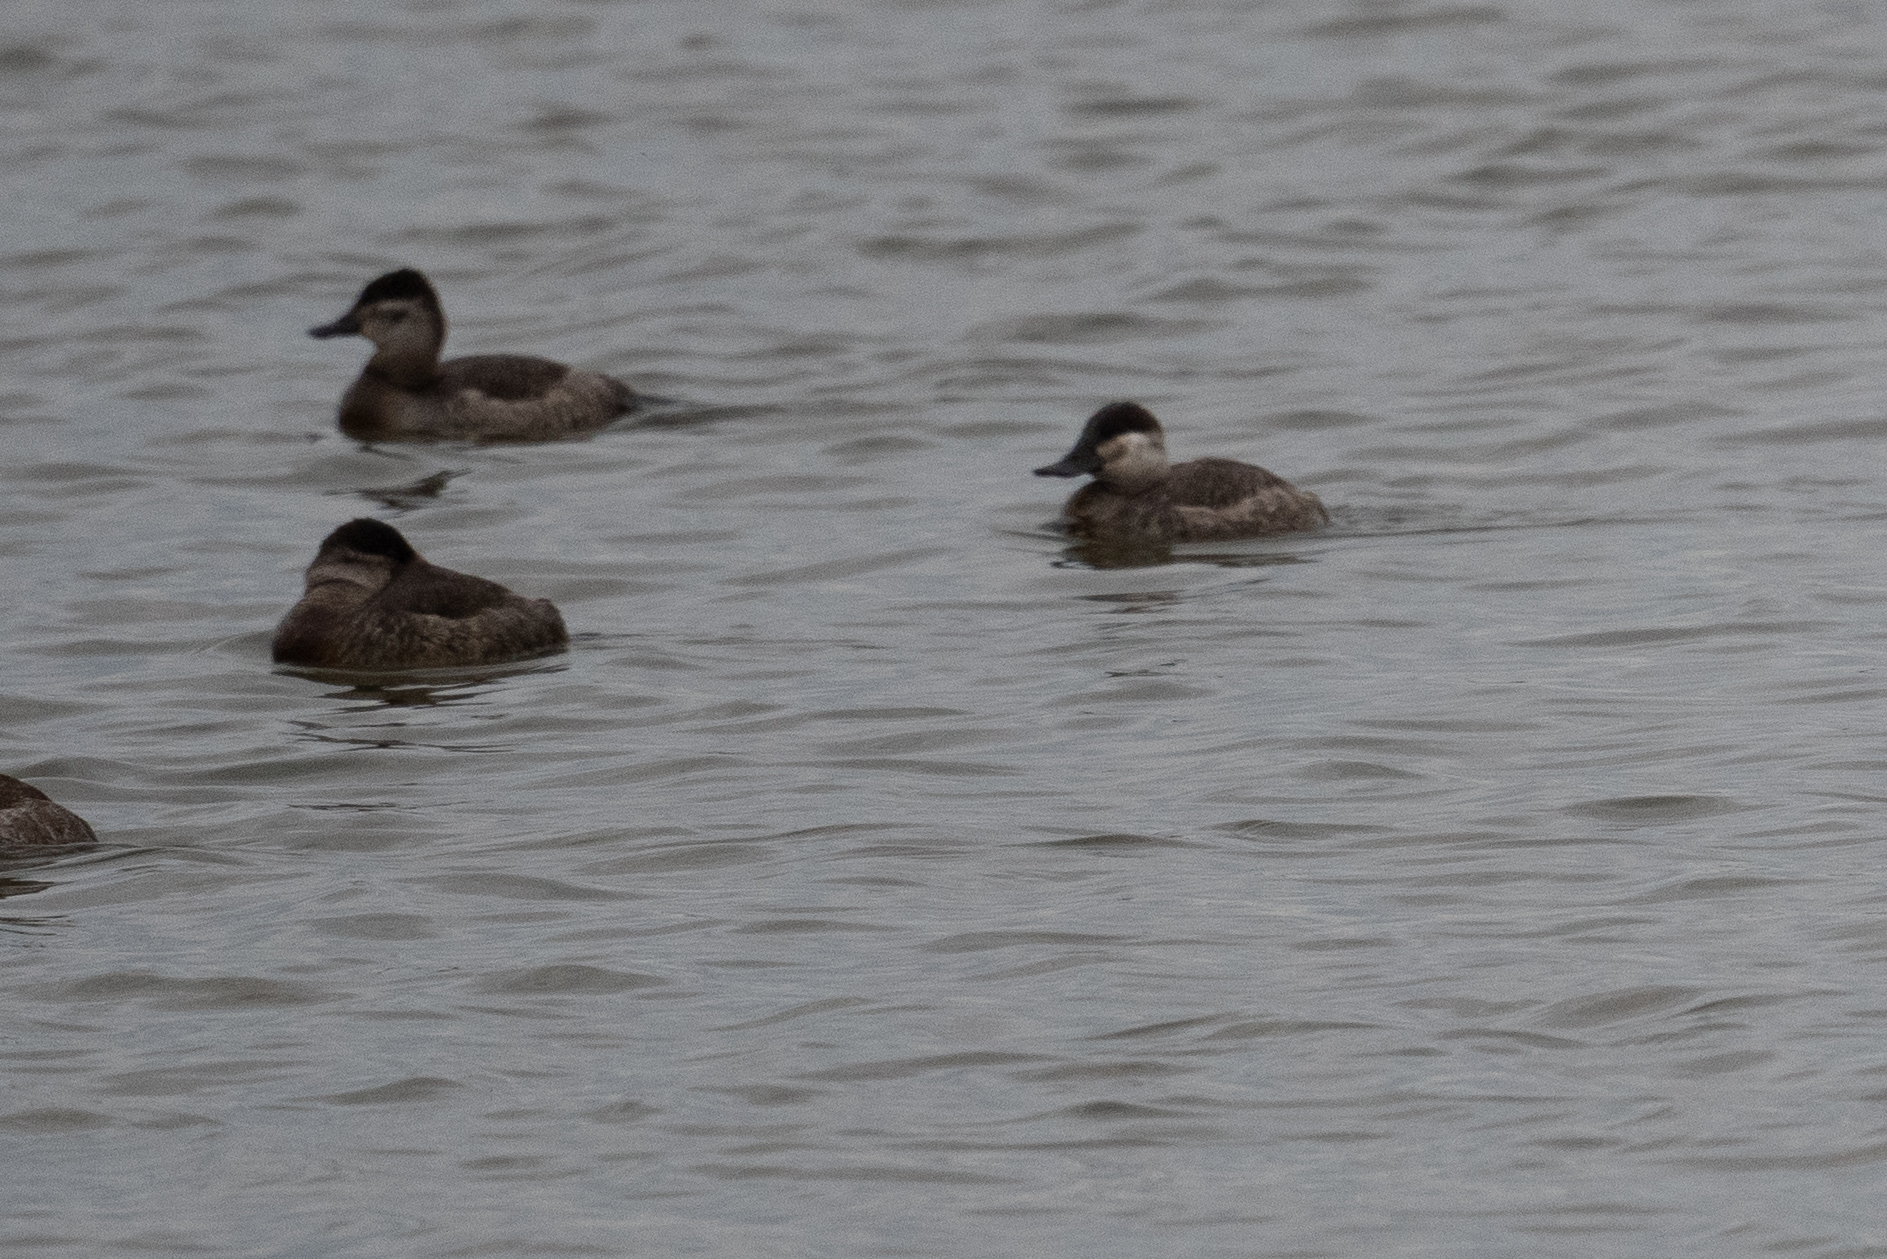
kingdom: Animalia
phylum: Chordata
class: Aves
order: Anseriformes
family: Anatidae
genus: Oxyura
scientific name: Oxyura jamaicensis
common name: Ruddy duck
